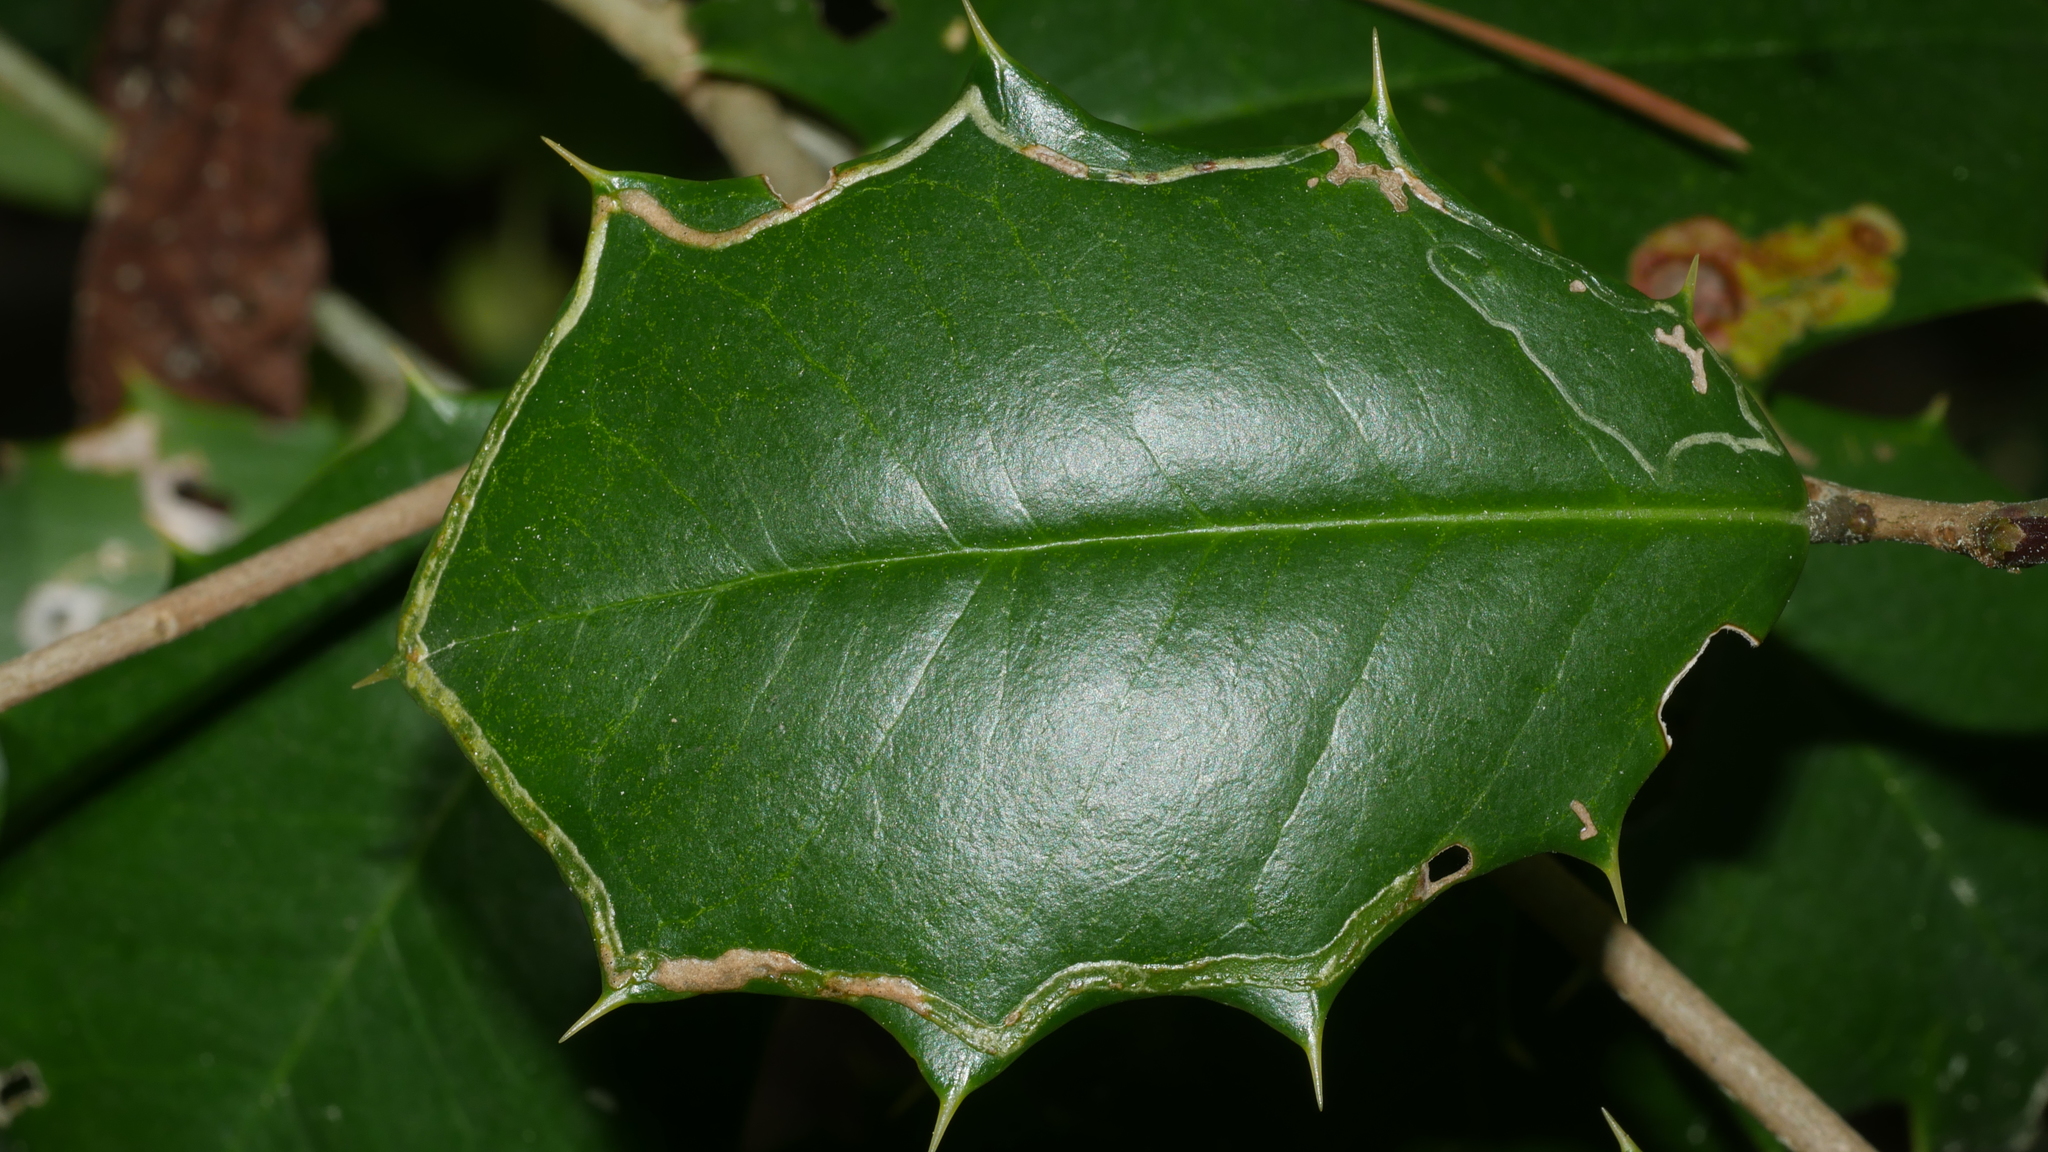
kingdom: Animalia
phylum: Arthropoda
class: Insecta
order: Diptera
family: Agromyzidae
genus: Phytomyza
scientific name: Phytomyza opacae
